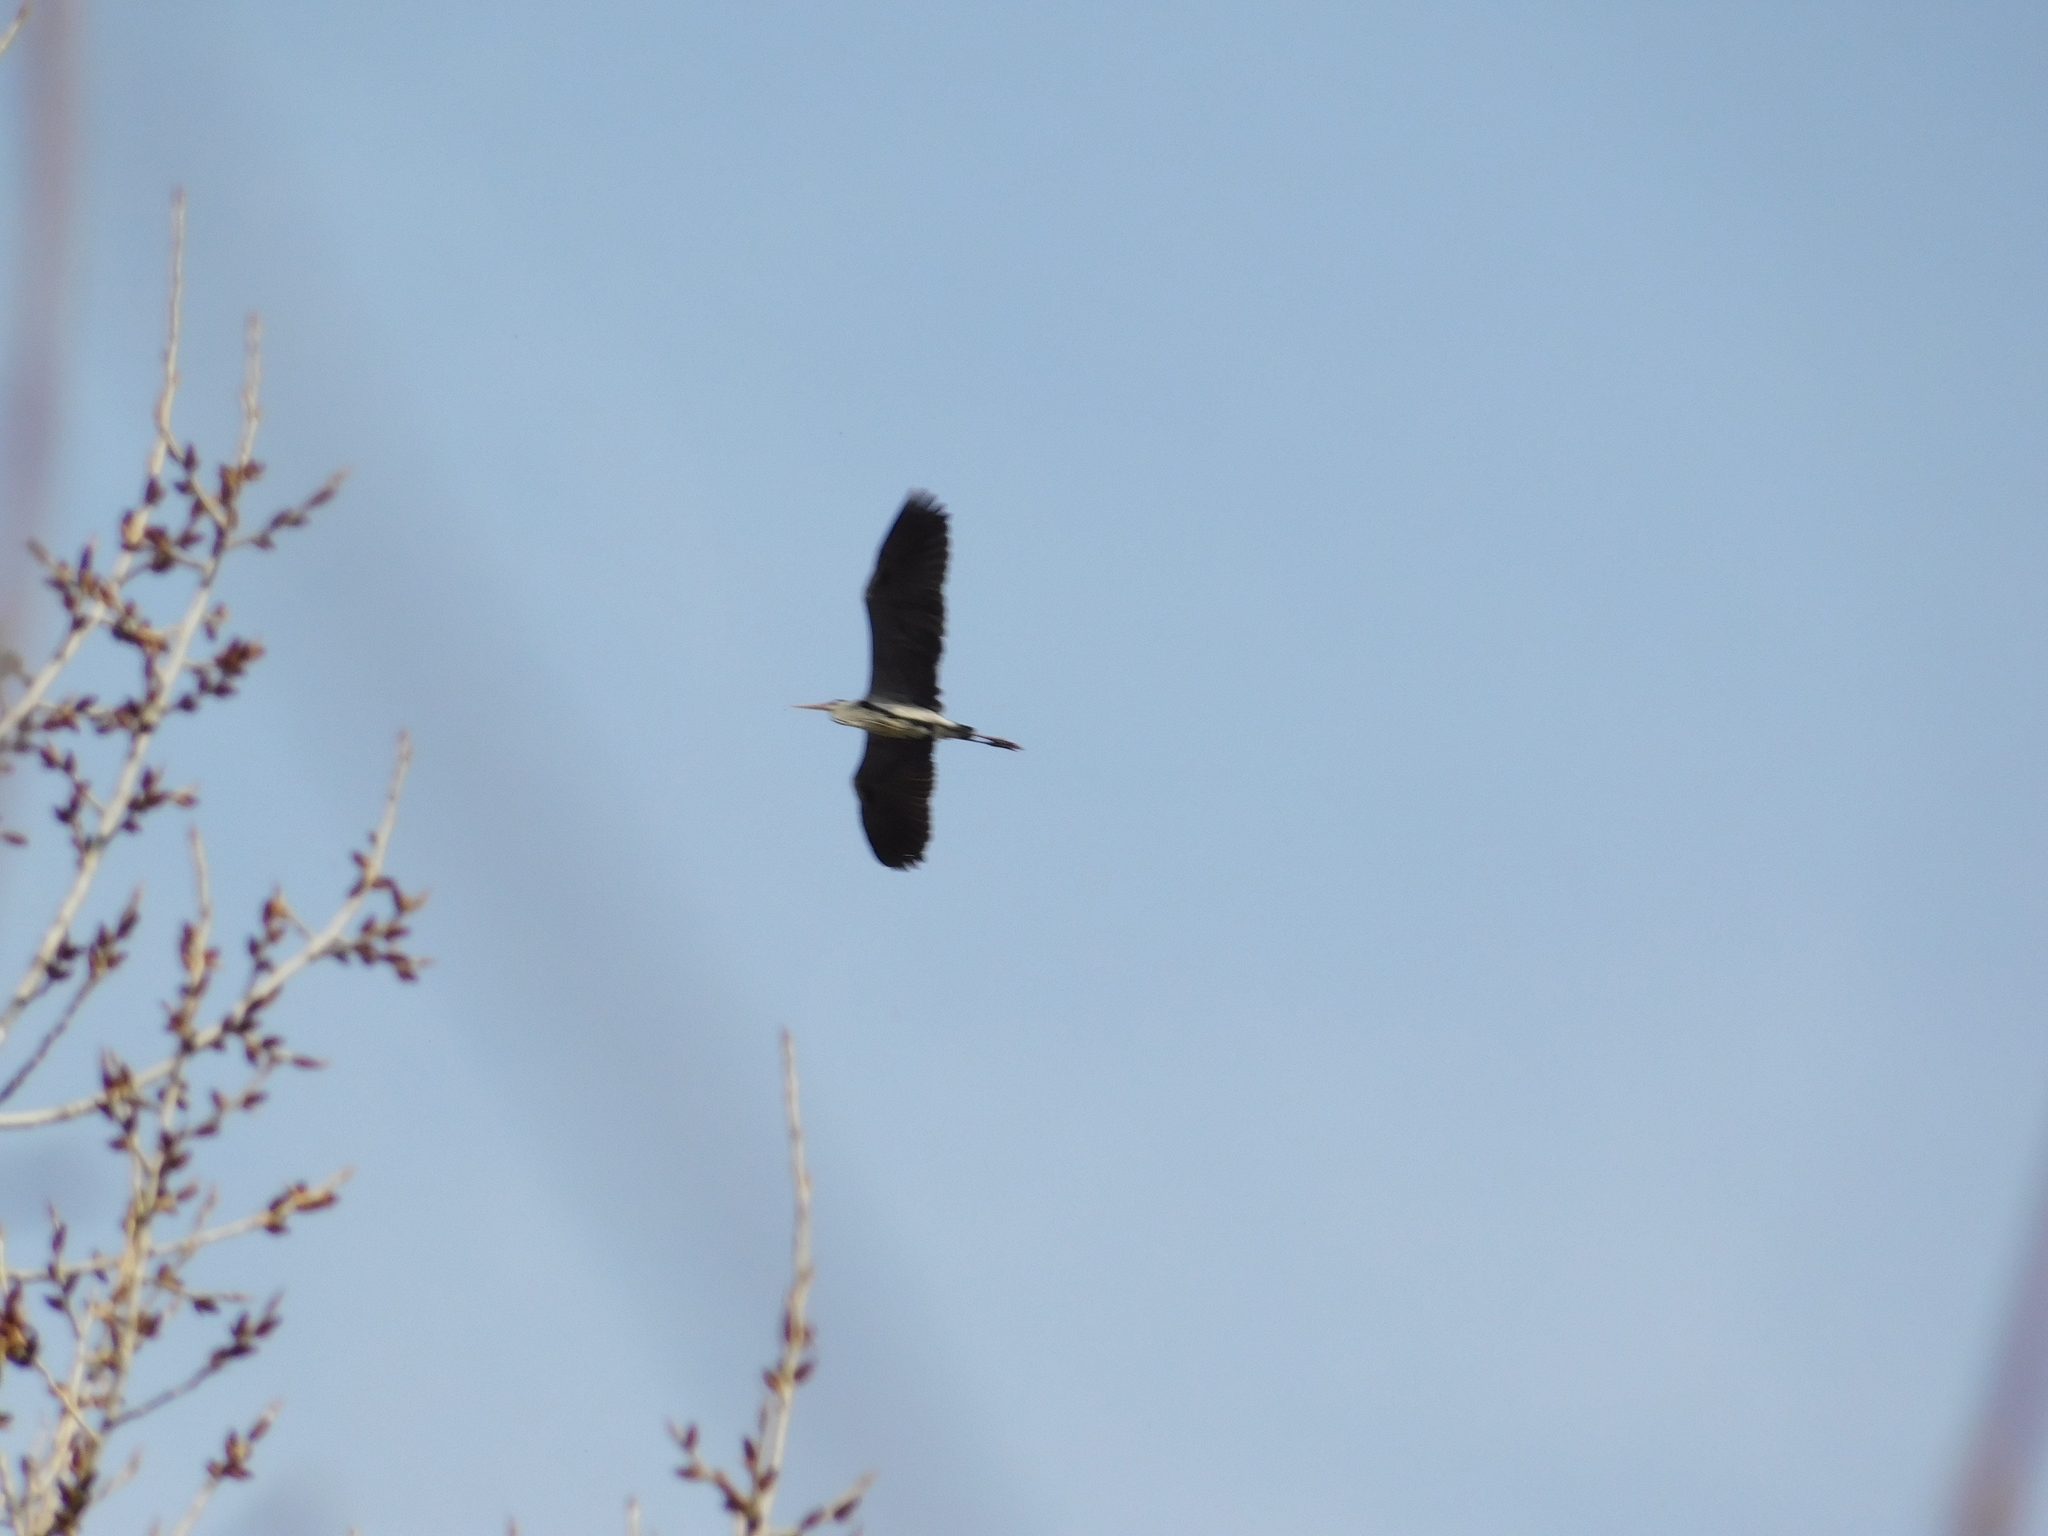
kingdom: Animalia
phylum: Chordata
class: Aves
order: Pelecaniformes
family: Ardeidae
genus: Ardea
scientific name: Ardea cinerea
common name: Grey heron
